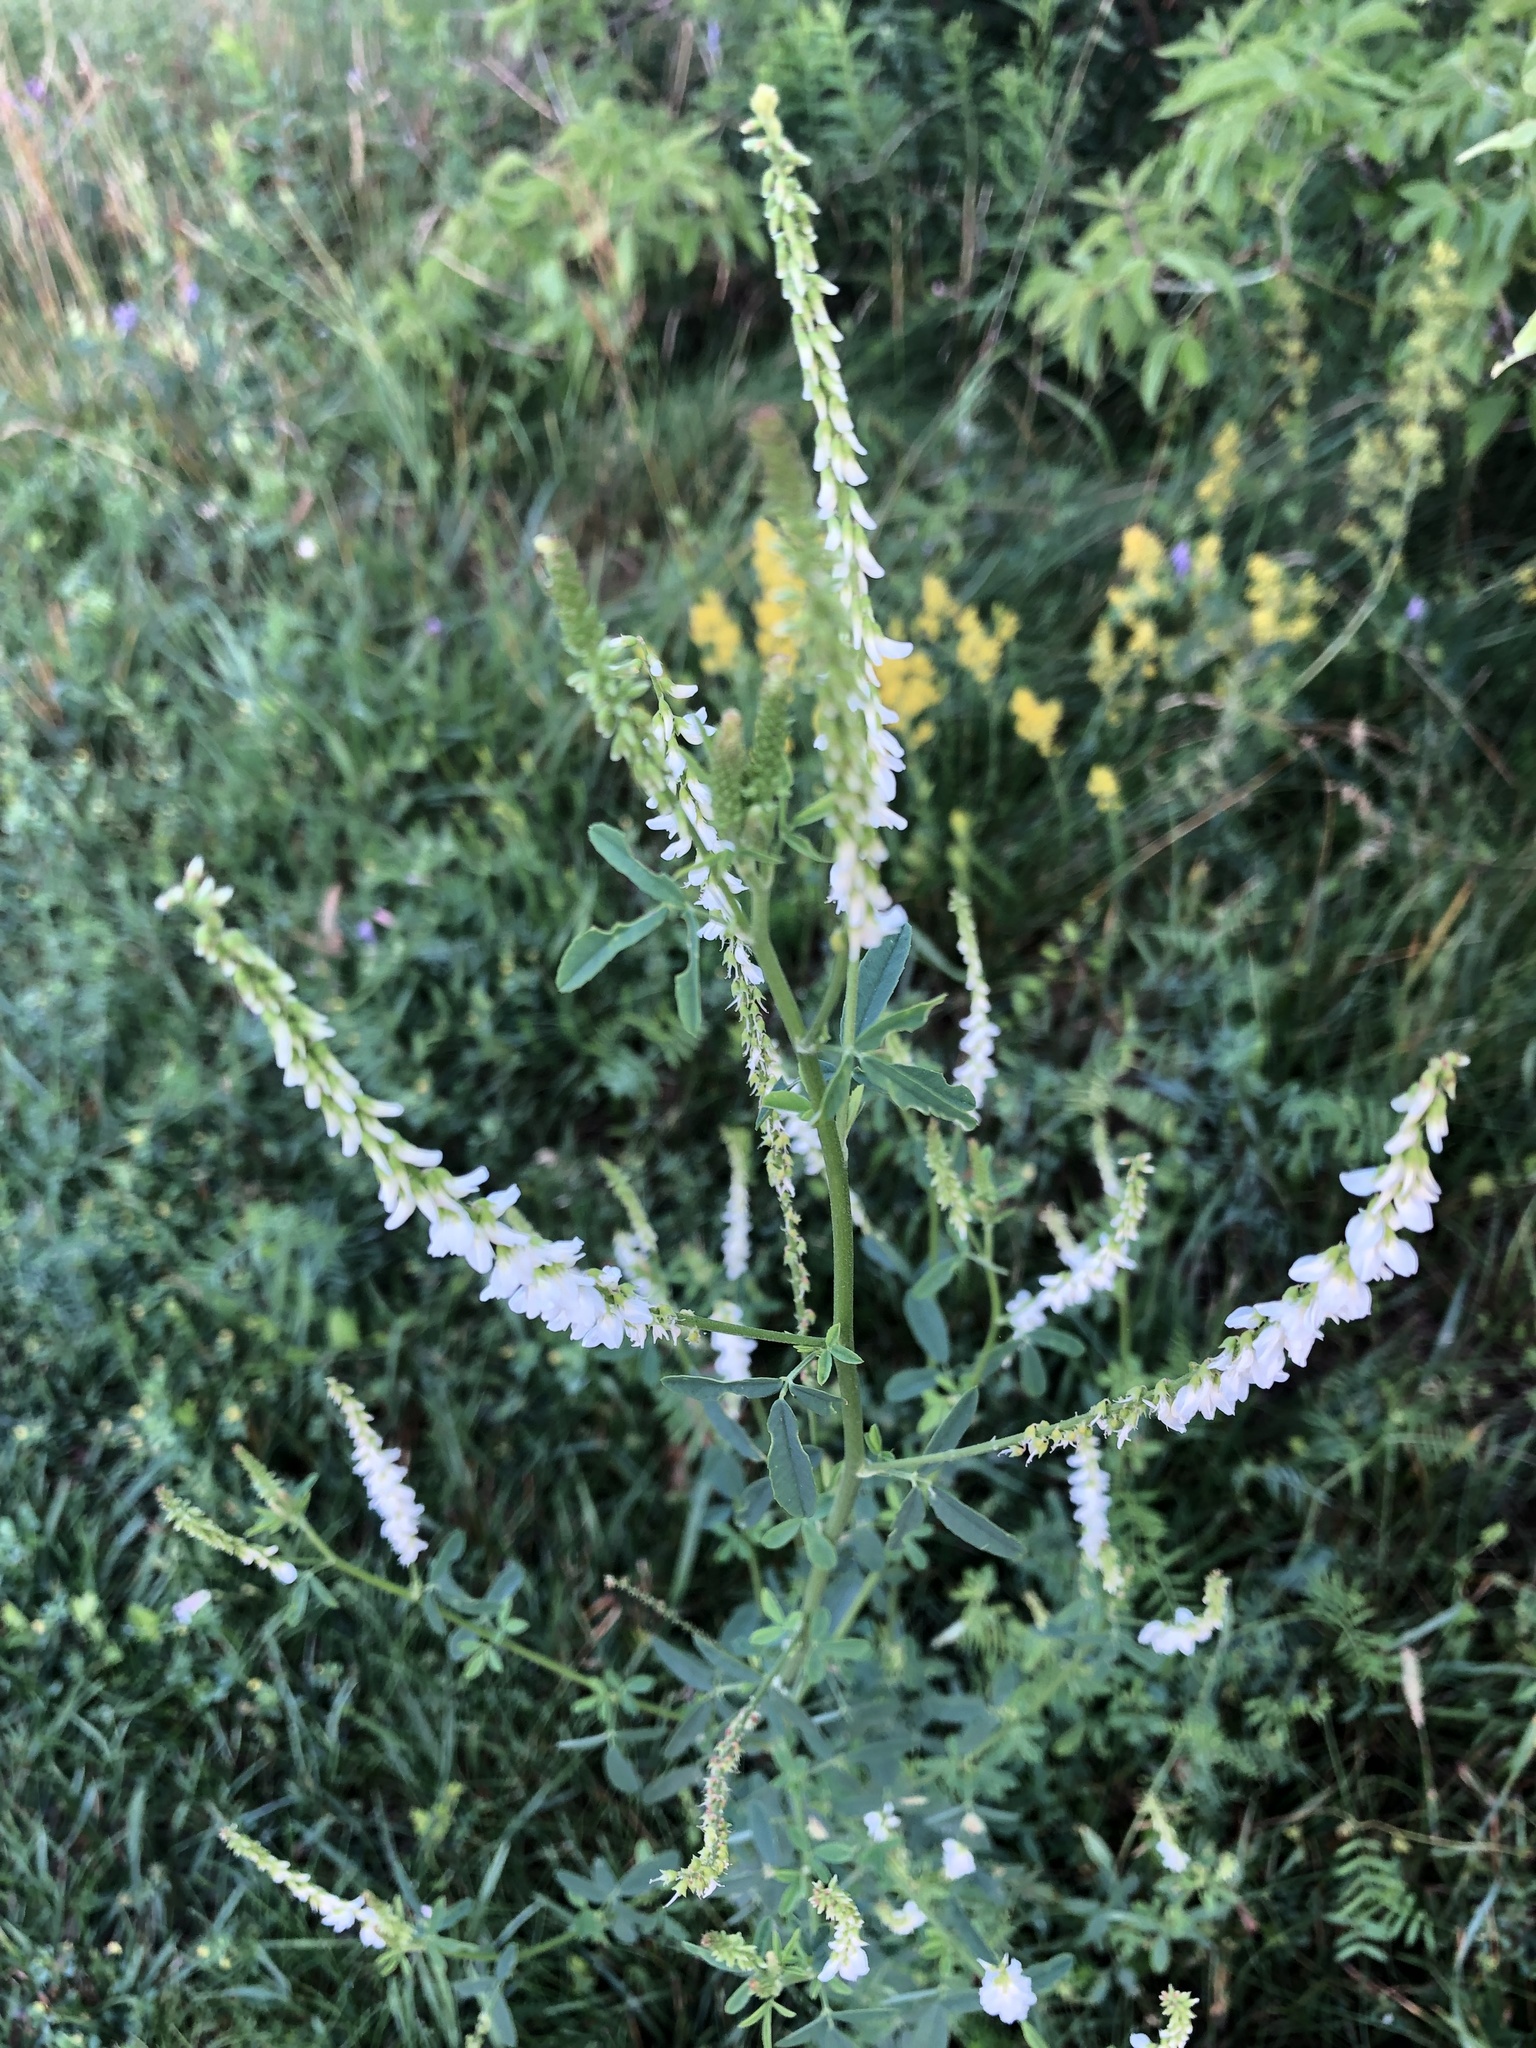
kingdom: Plantae
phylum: Tracheophyta
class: Magnoliopsida
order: Fabales
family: Fabaceae
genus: Melilotus
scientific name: Melilotus albus
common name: White melilot
